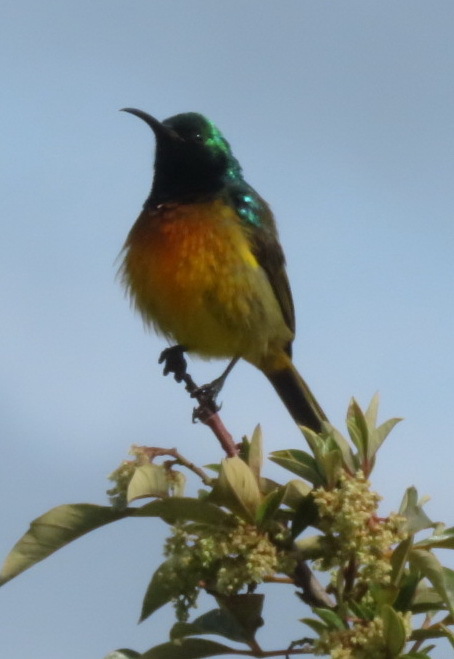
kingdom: Animalia
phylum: Chordata
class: Aves
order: Passeriformes
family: Nectariniidae
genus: Anthobaphes
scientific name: Anthobaphes violacea
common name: Orange-breasted sunbird
